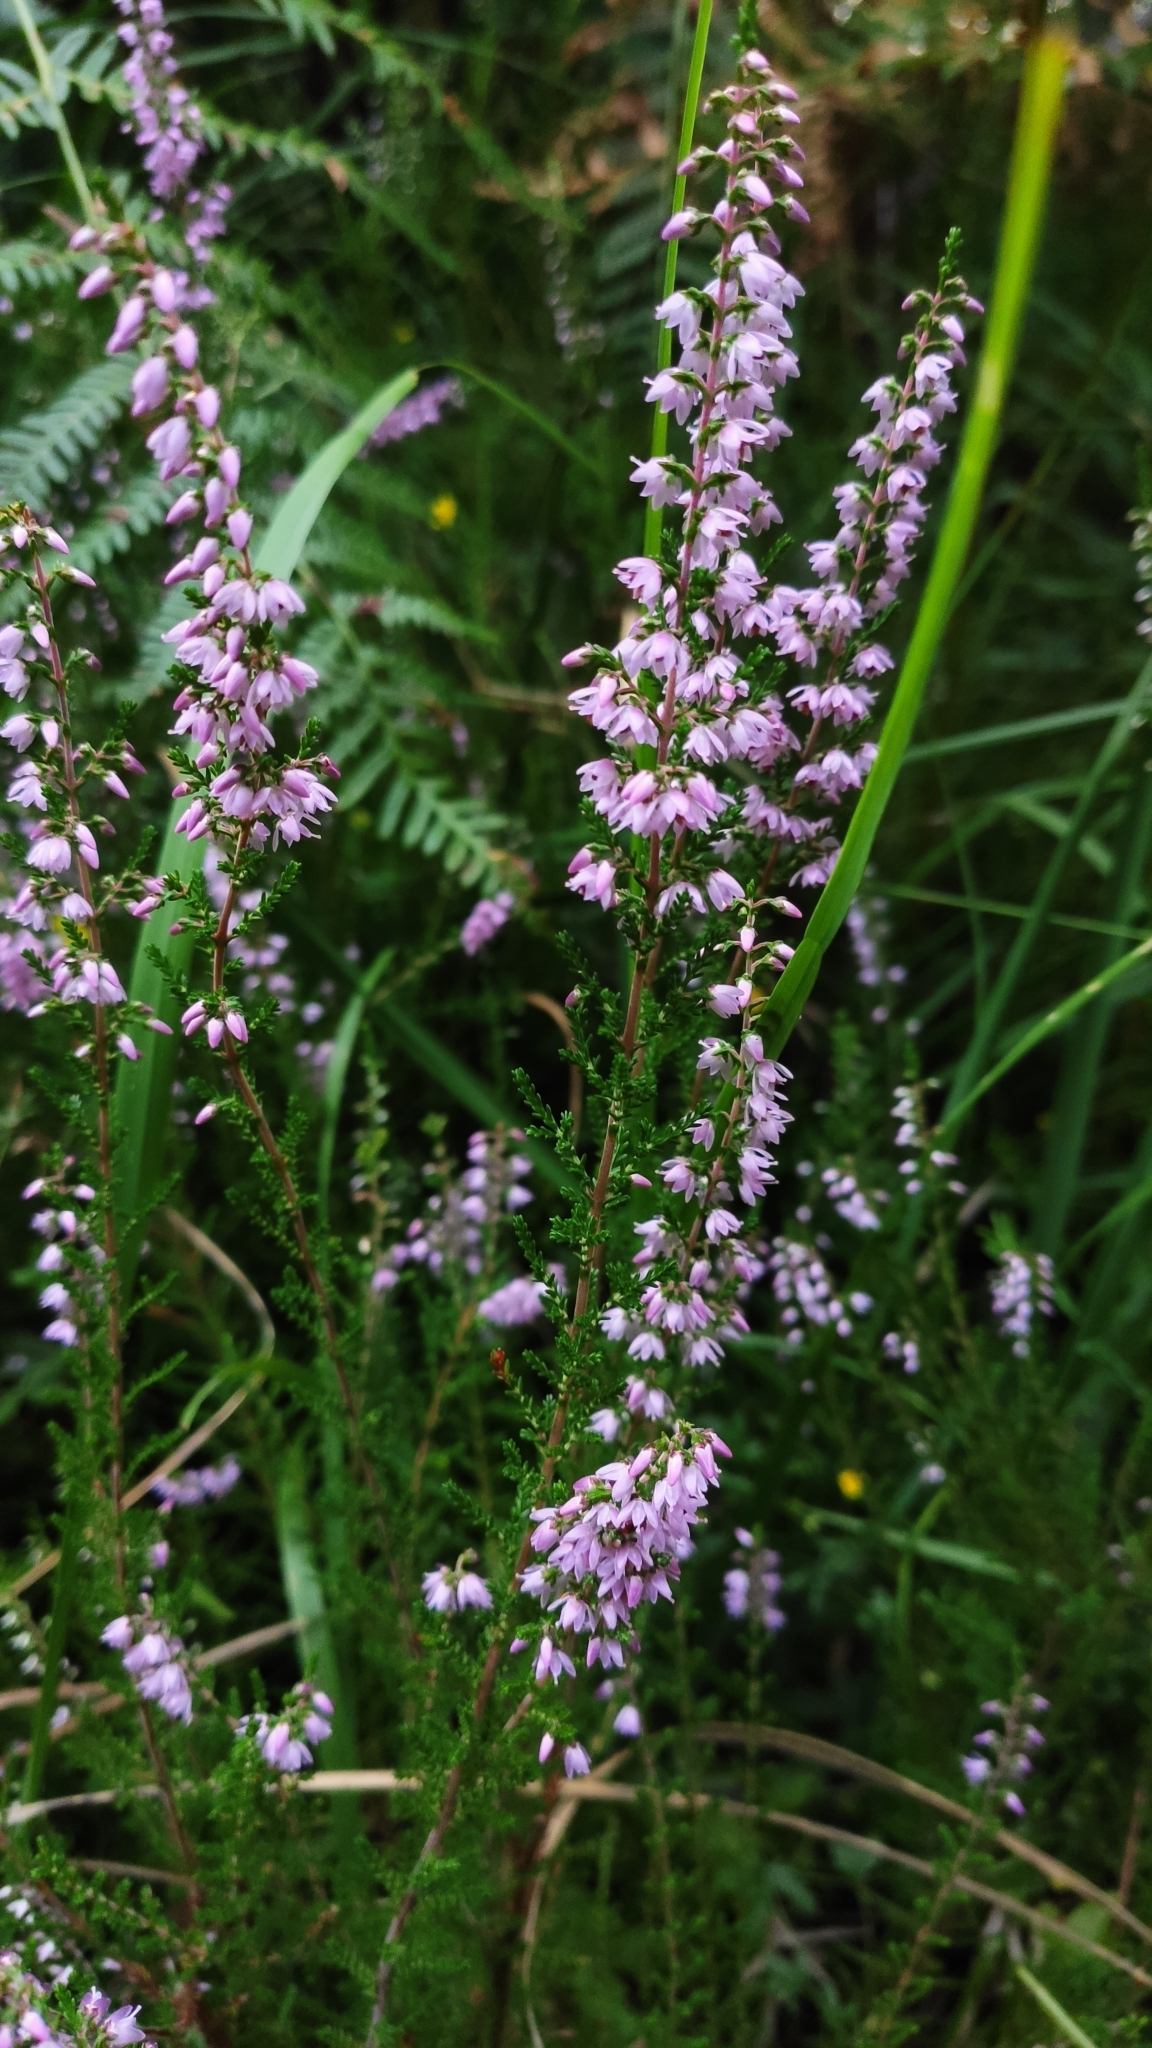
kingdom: Plantae
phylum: Tracheophyta
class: Magnoliopsida
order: Ericales
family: Ericaceae
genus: Calluna
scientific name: Calluna vulgaris
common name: Heather
